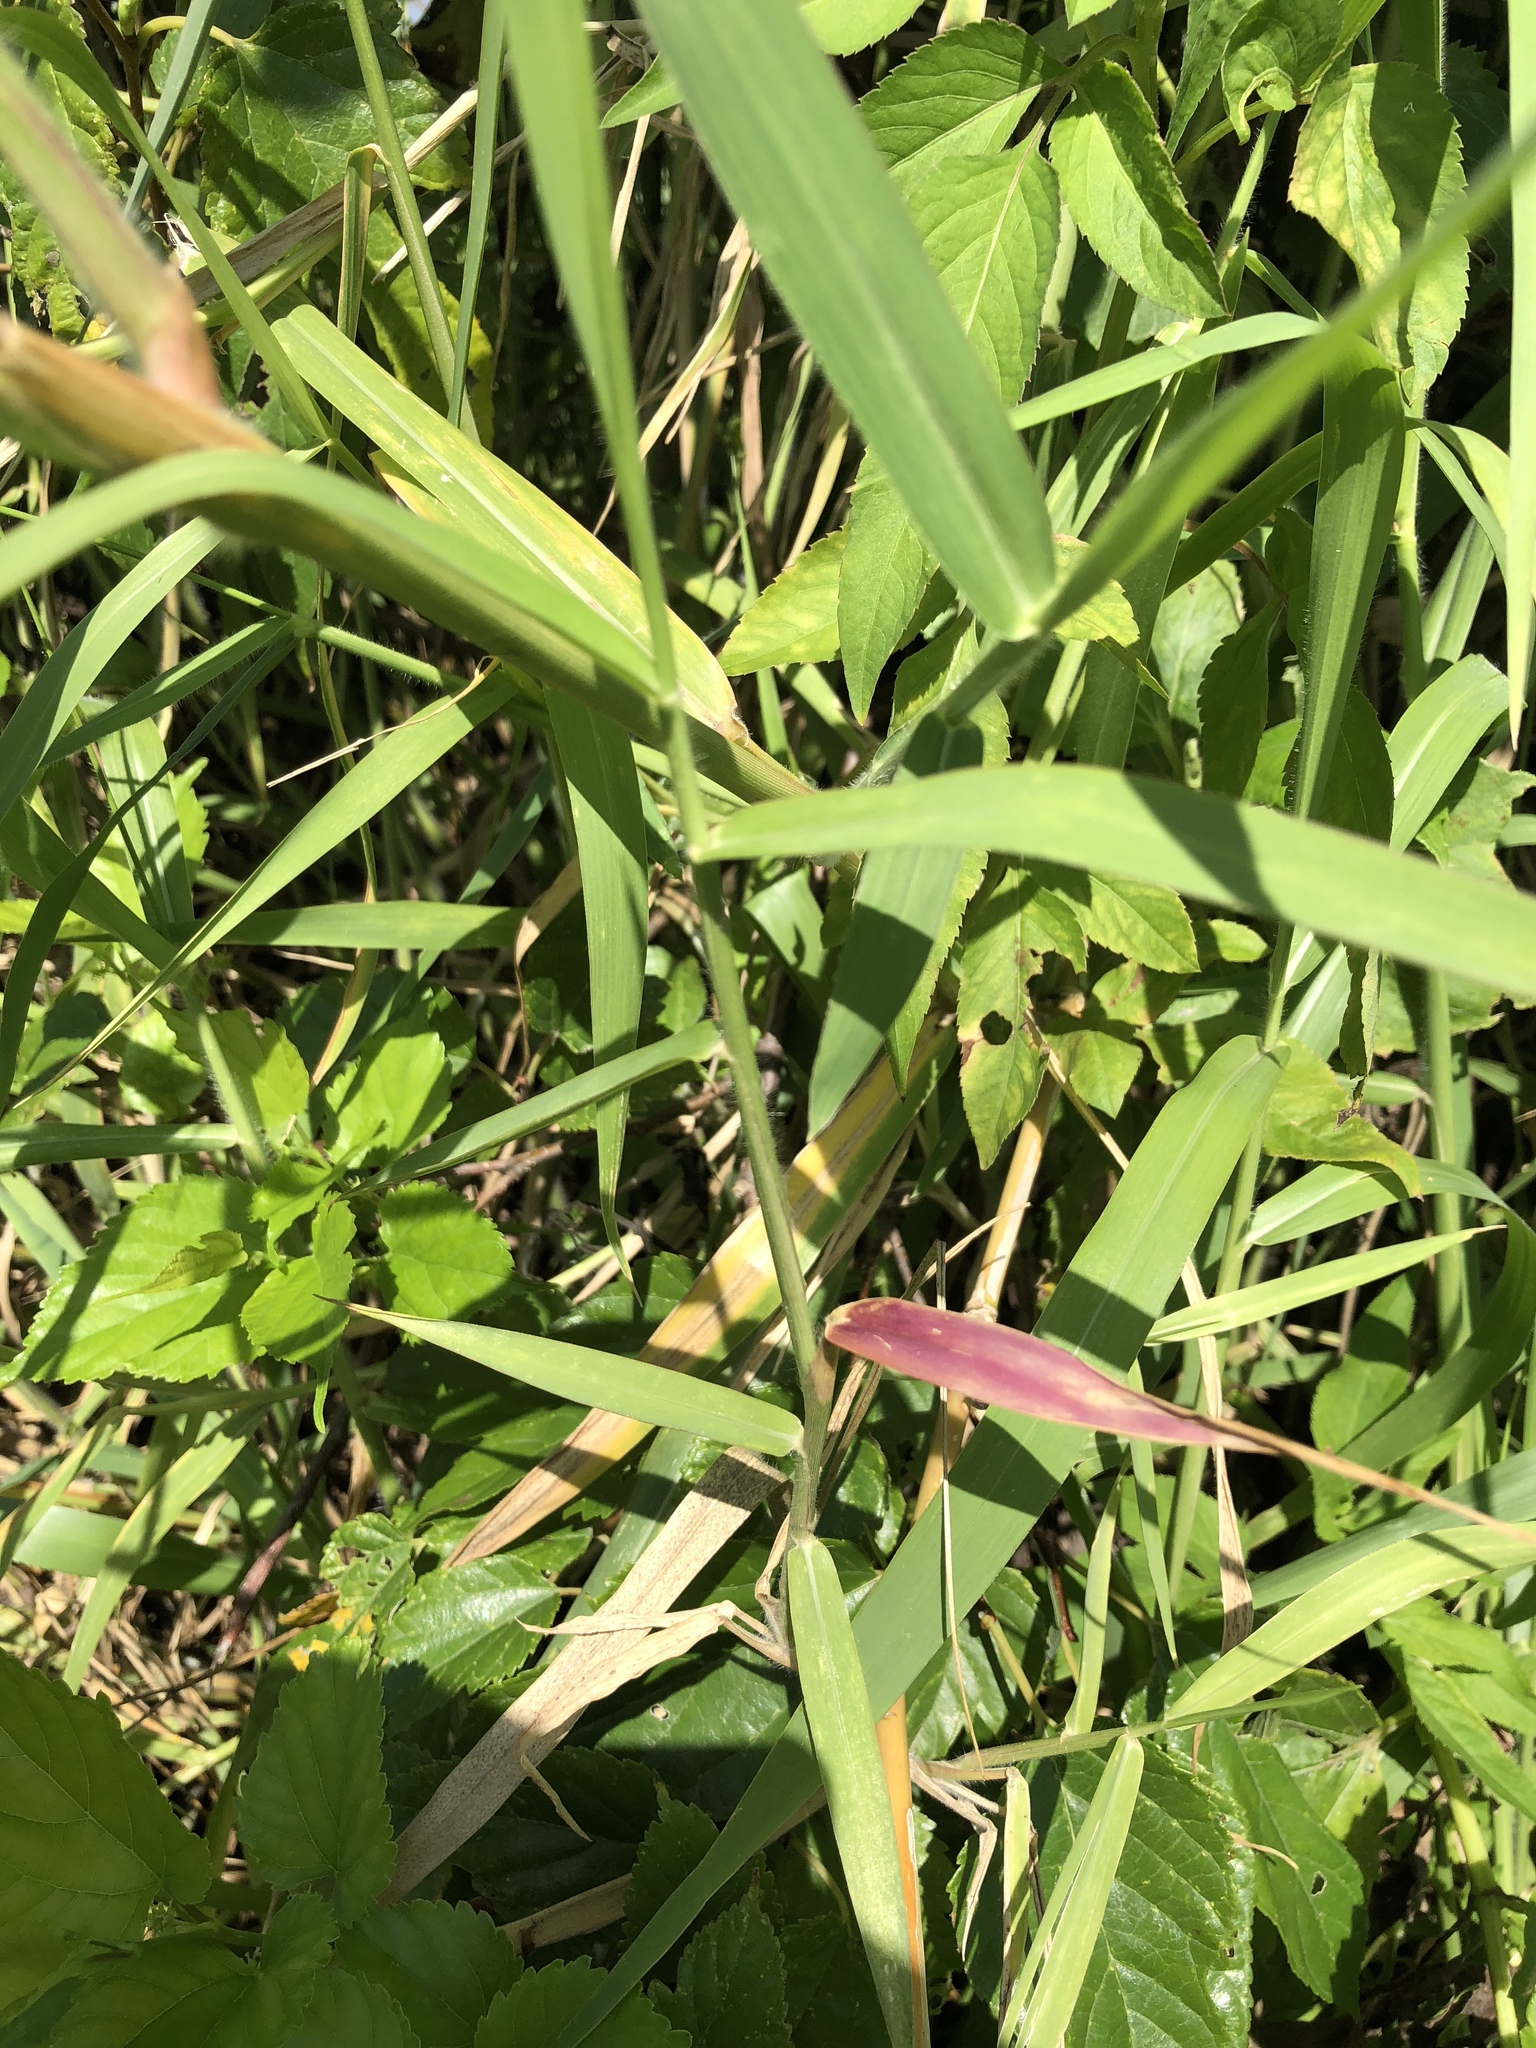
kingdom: Plantae
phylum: Tracheophyta
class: Liliopsida
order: Poales
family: Poaceae
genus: Urochloa
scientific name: Urochloa mutica
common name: Para grass
